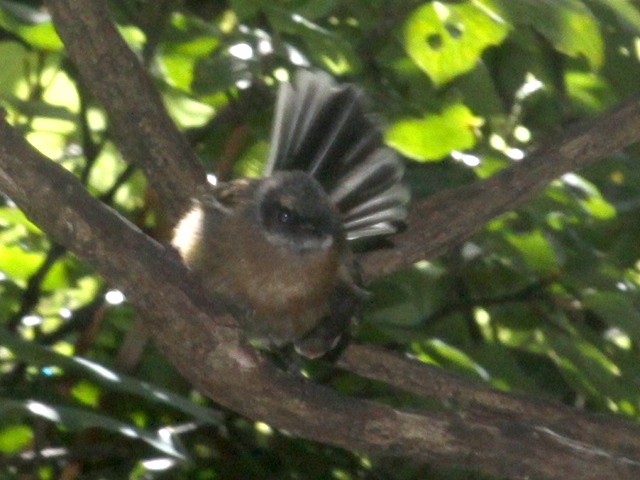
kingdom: Animalia
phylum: Chordata
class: Aves
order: Passeriformes
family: Rhipiduridae
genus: Rhipidura
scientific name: Rhipidura fuliginosa
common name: New zealand fantail
